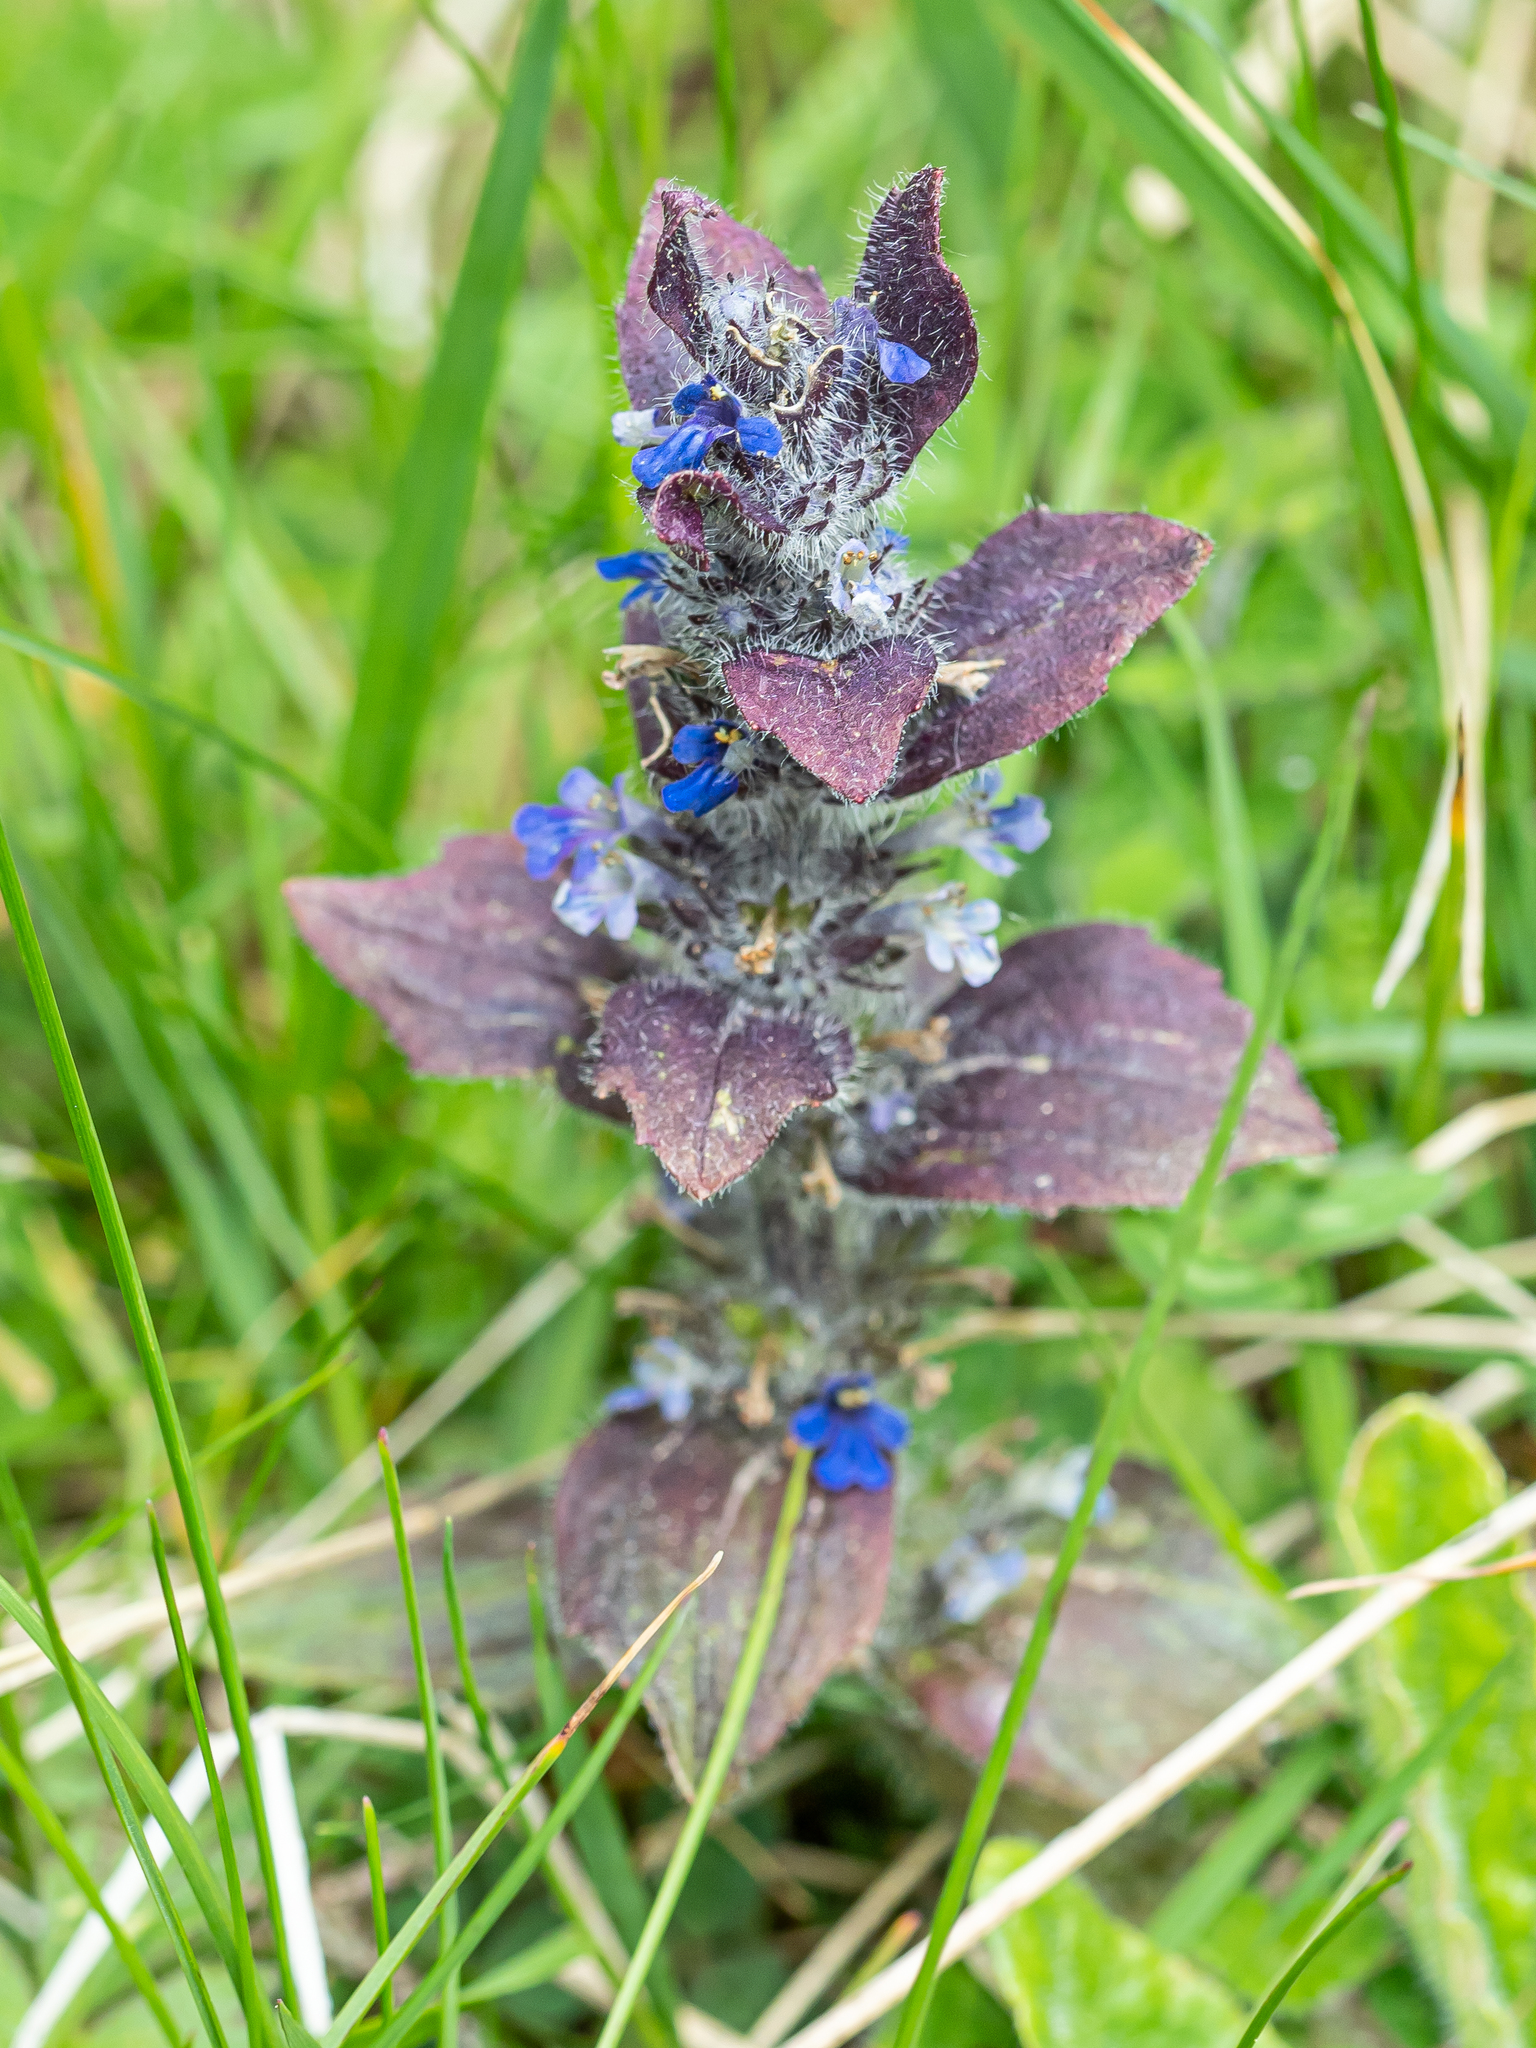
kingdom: Plantae
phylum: Tracheophyta
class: Magnoliopsida
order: Lamiales
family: Lamiaceae
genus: Ajuga
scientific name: Ajuga pyramidalis
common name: Pyramid bugle
